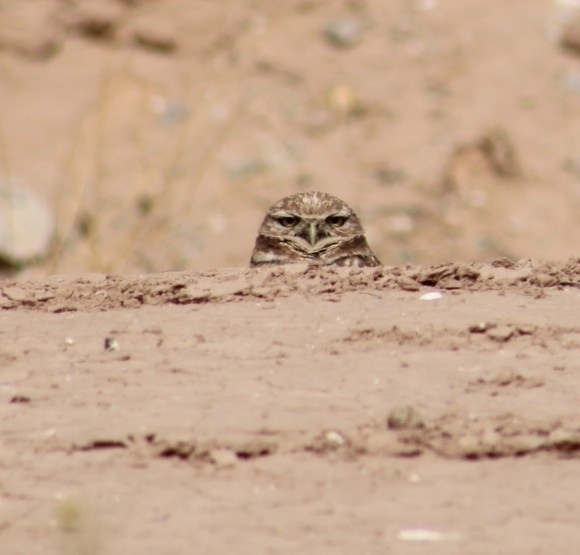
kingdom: Animalia
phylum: Chordata
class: Aves
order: Strigiformes
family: Strigidae
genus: Athene
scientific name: Athene cunicularia
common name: Burrowing owl
